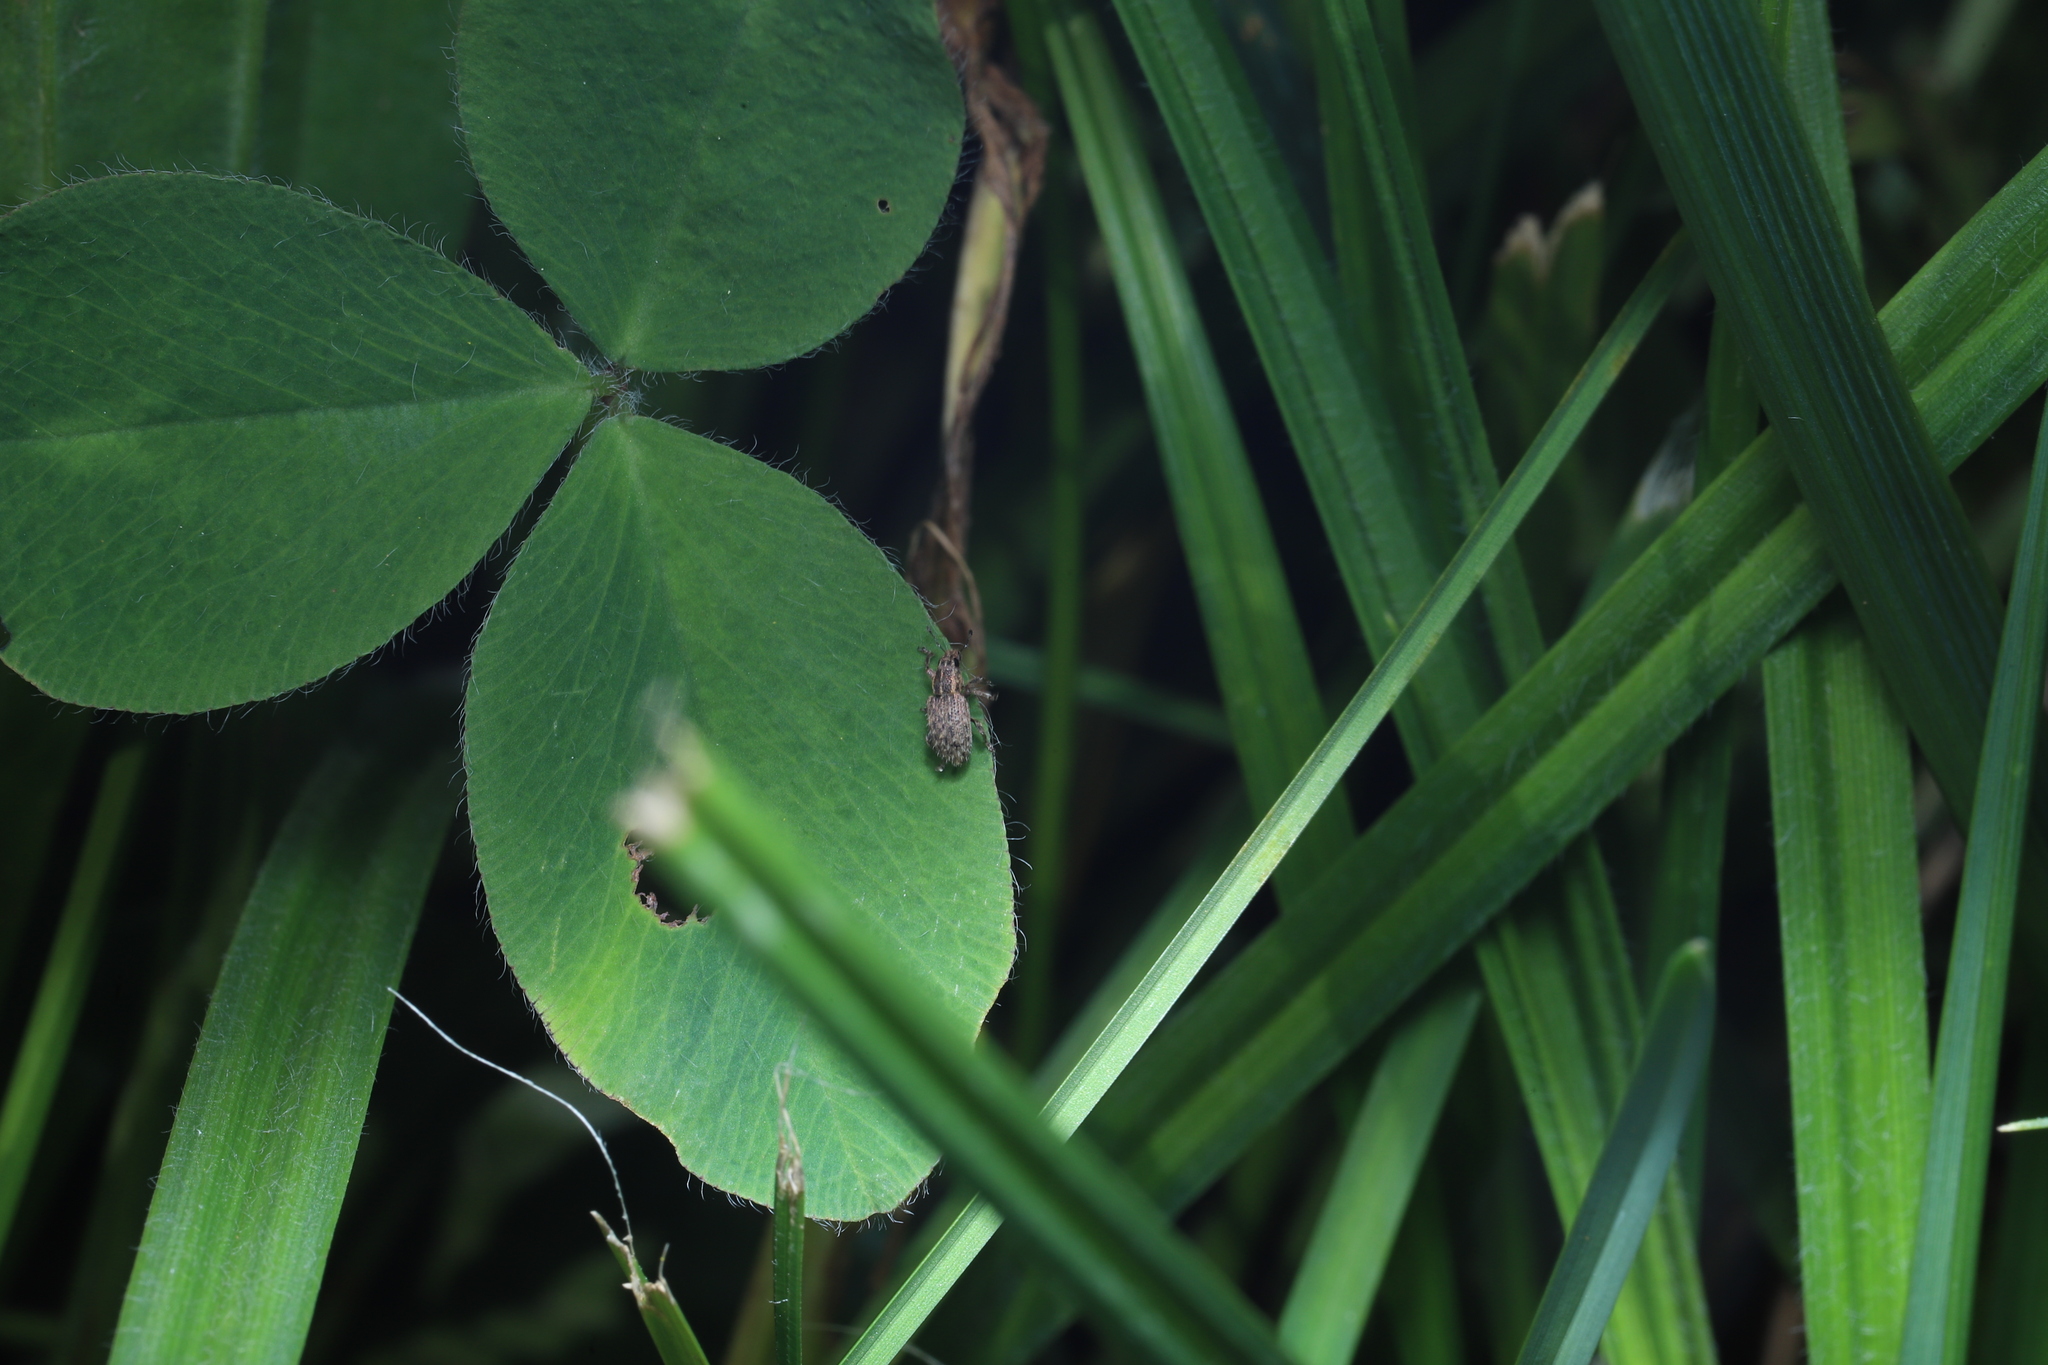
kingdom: Animalia
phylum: Arthropoda
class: Insecta
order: Coleoptera
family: Curculionidae
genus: Sitona
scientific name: Sitona hispidulus
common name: Clover weevil
